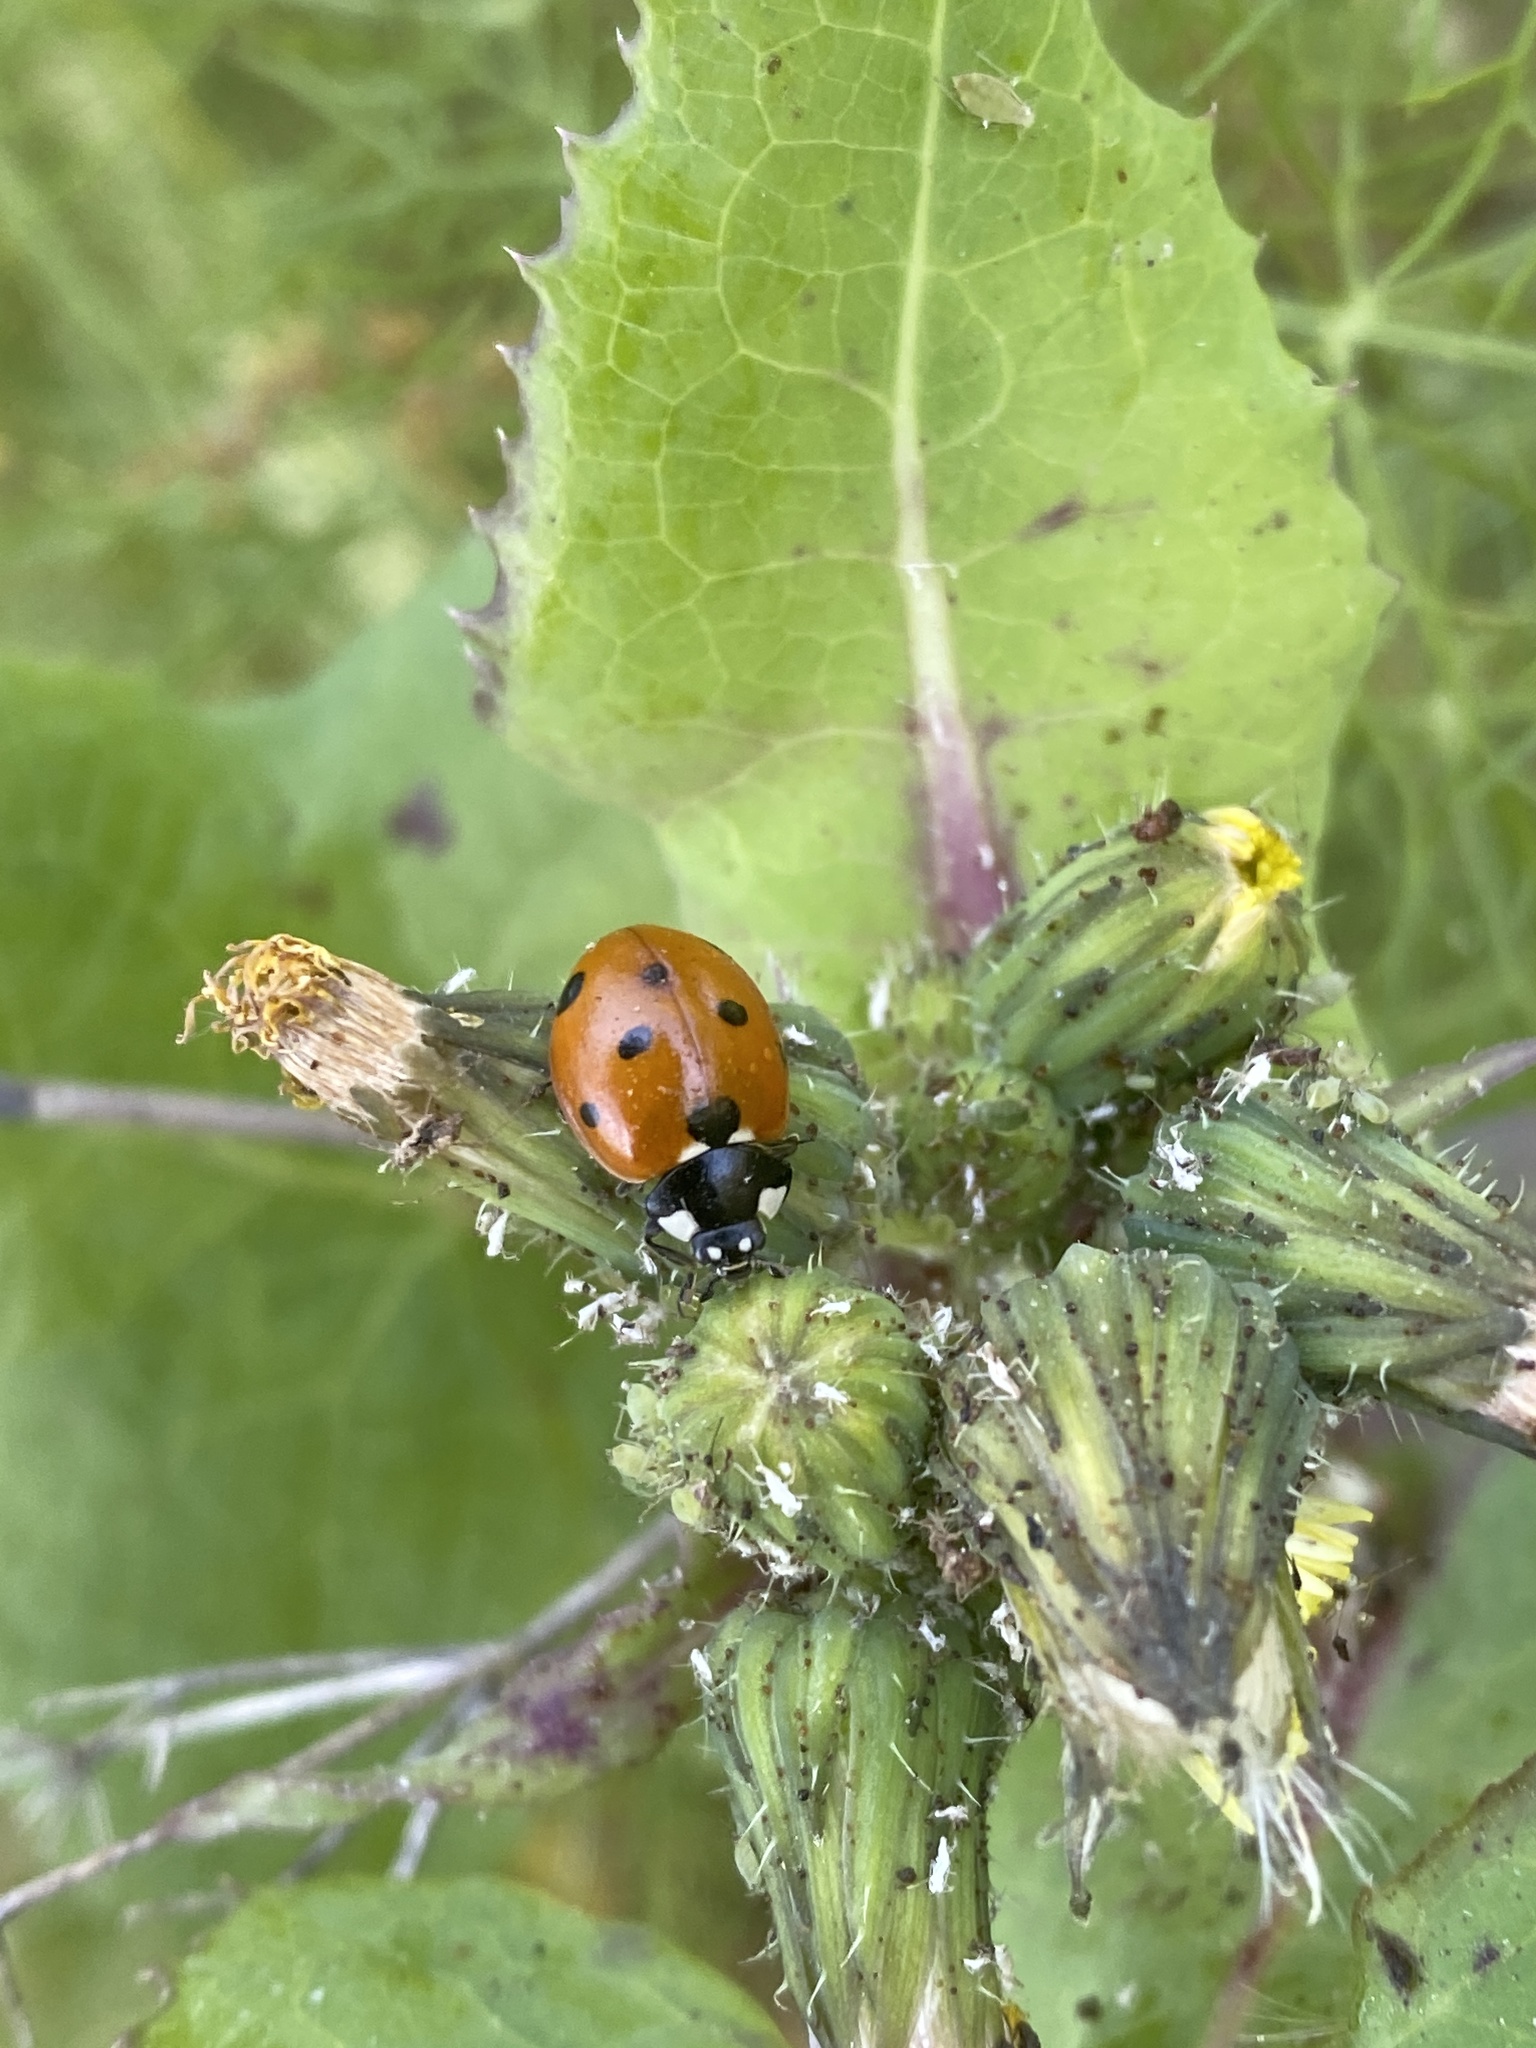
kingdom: Animalia
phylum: Arthropoda
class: Insecta
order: Coleoptera
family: Coccinellidae
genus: Coccinella
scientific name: Coccinella septempunctata
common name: Sevenspotted lady beetle
